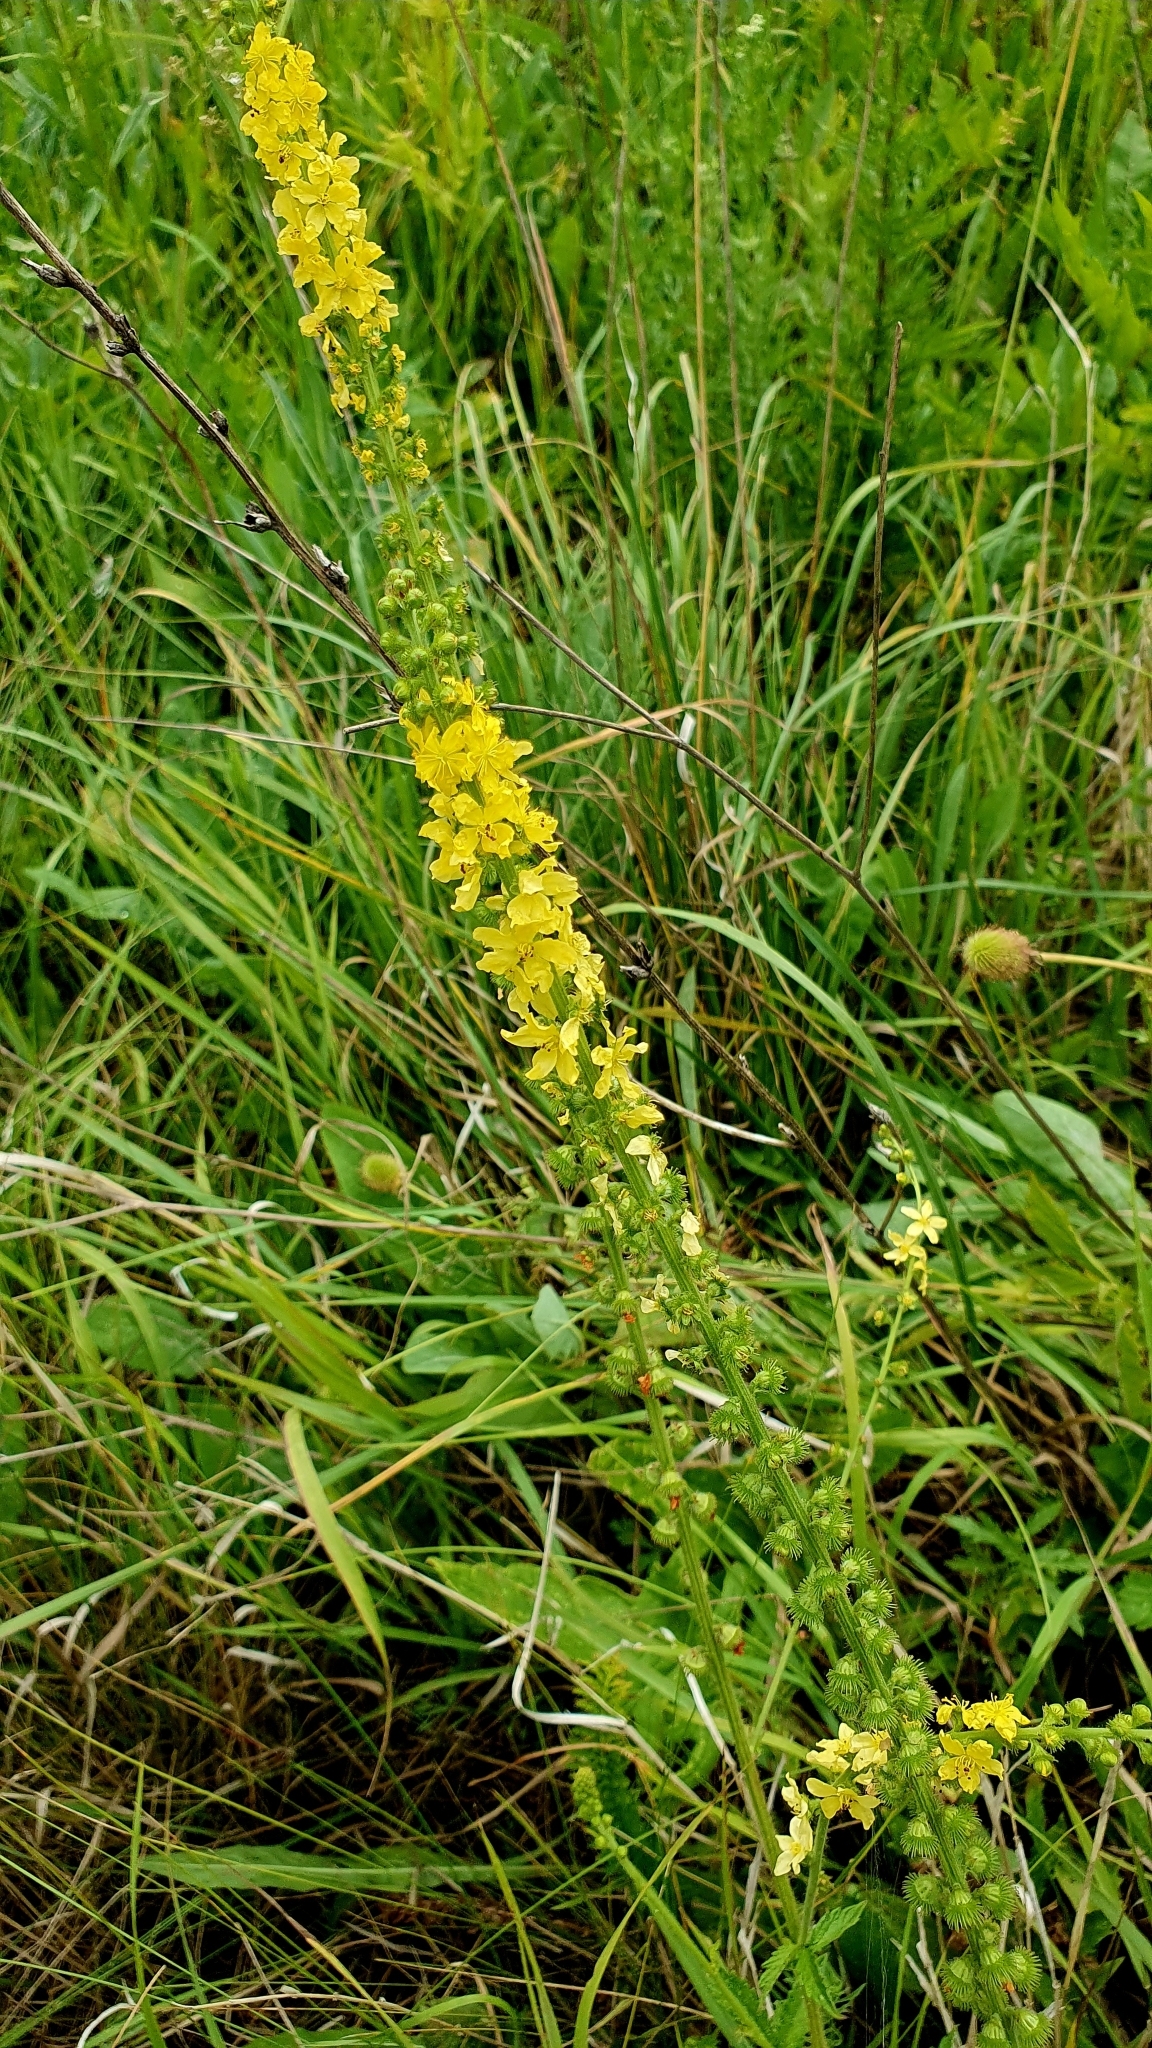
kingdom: Plantae
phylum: Tracheophyta
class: Magnoliopsida
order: Rosales
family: Rosaceae
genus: Agrimonia
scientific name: Agrimonia eupatoria
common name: Agrimony
